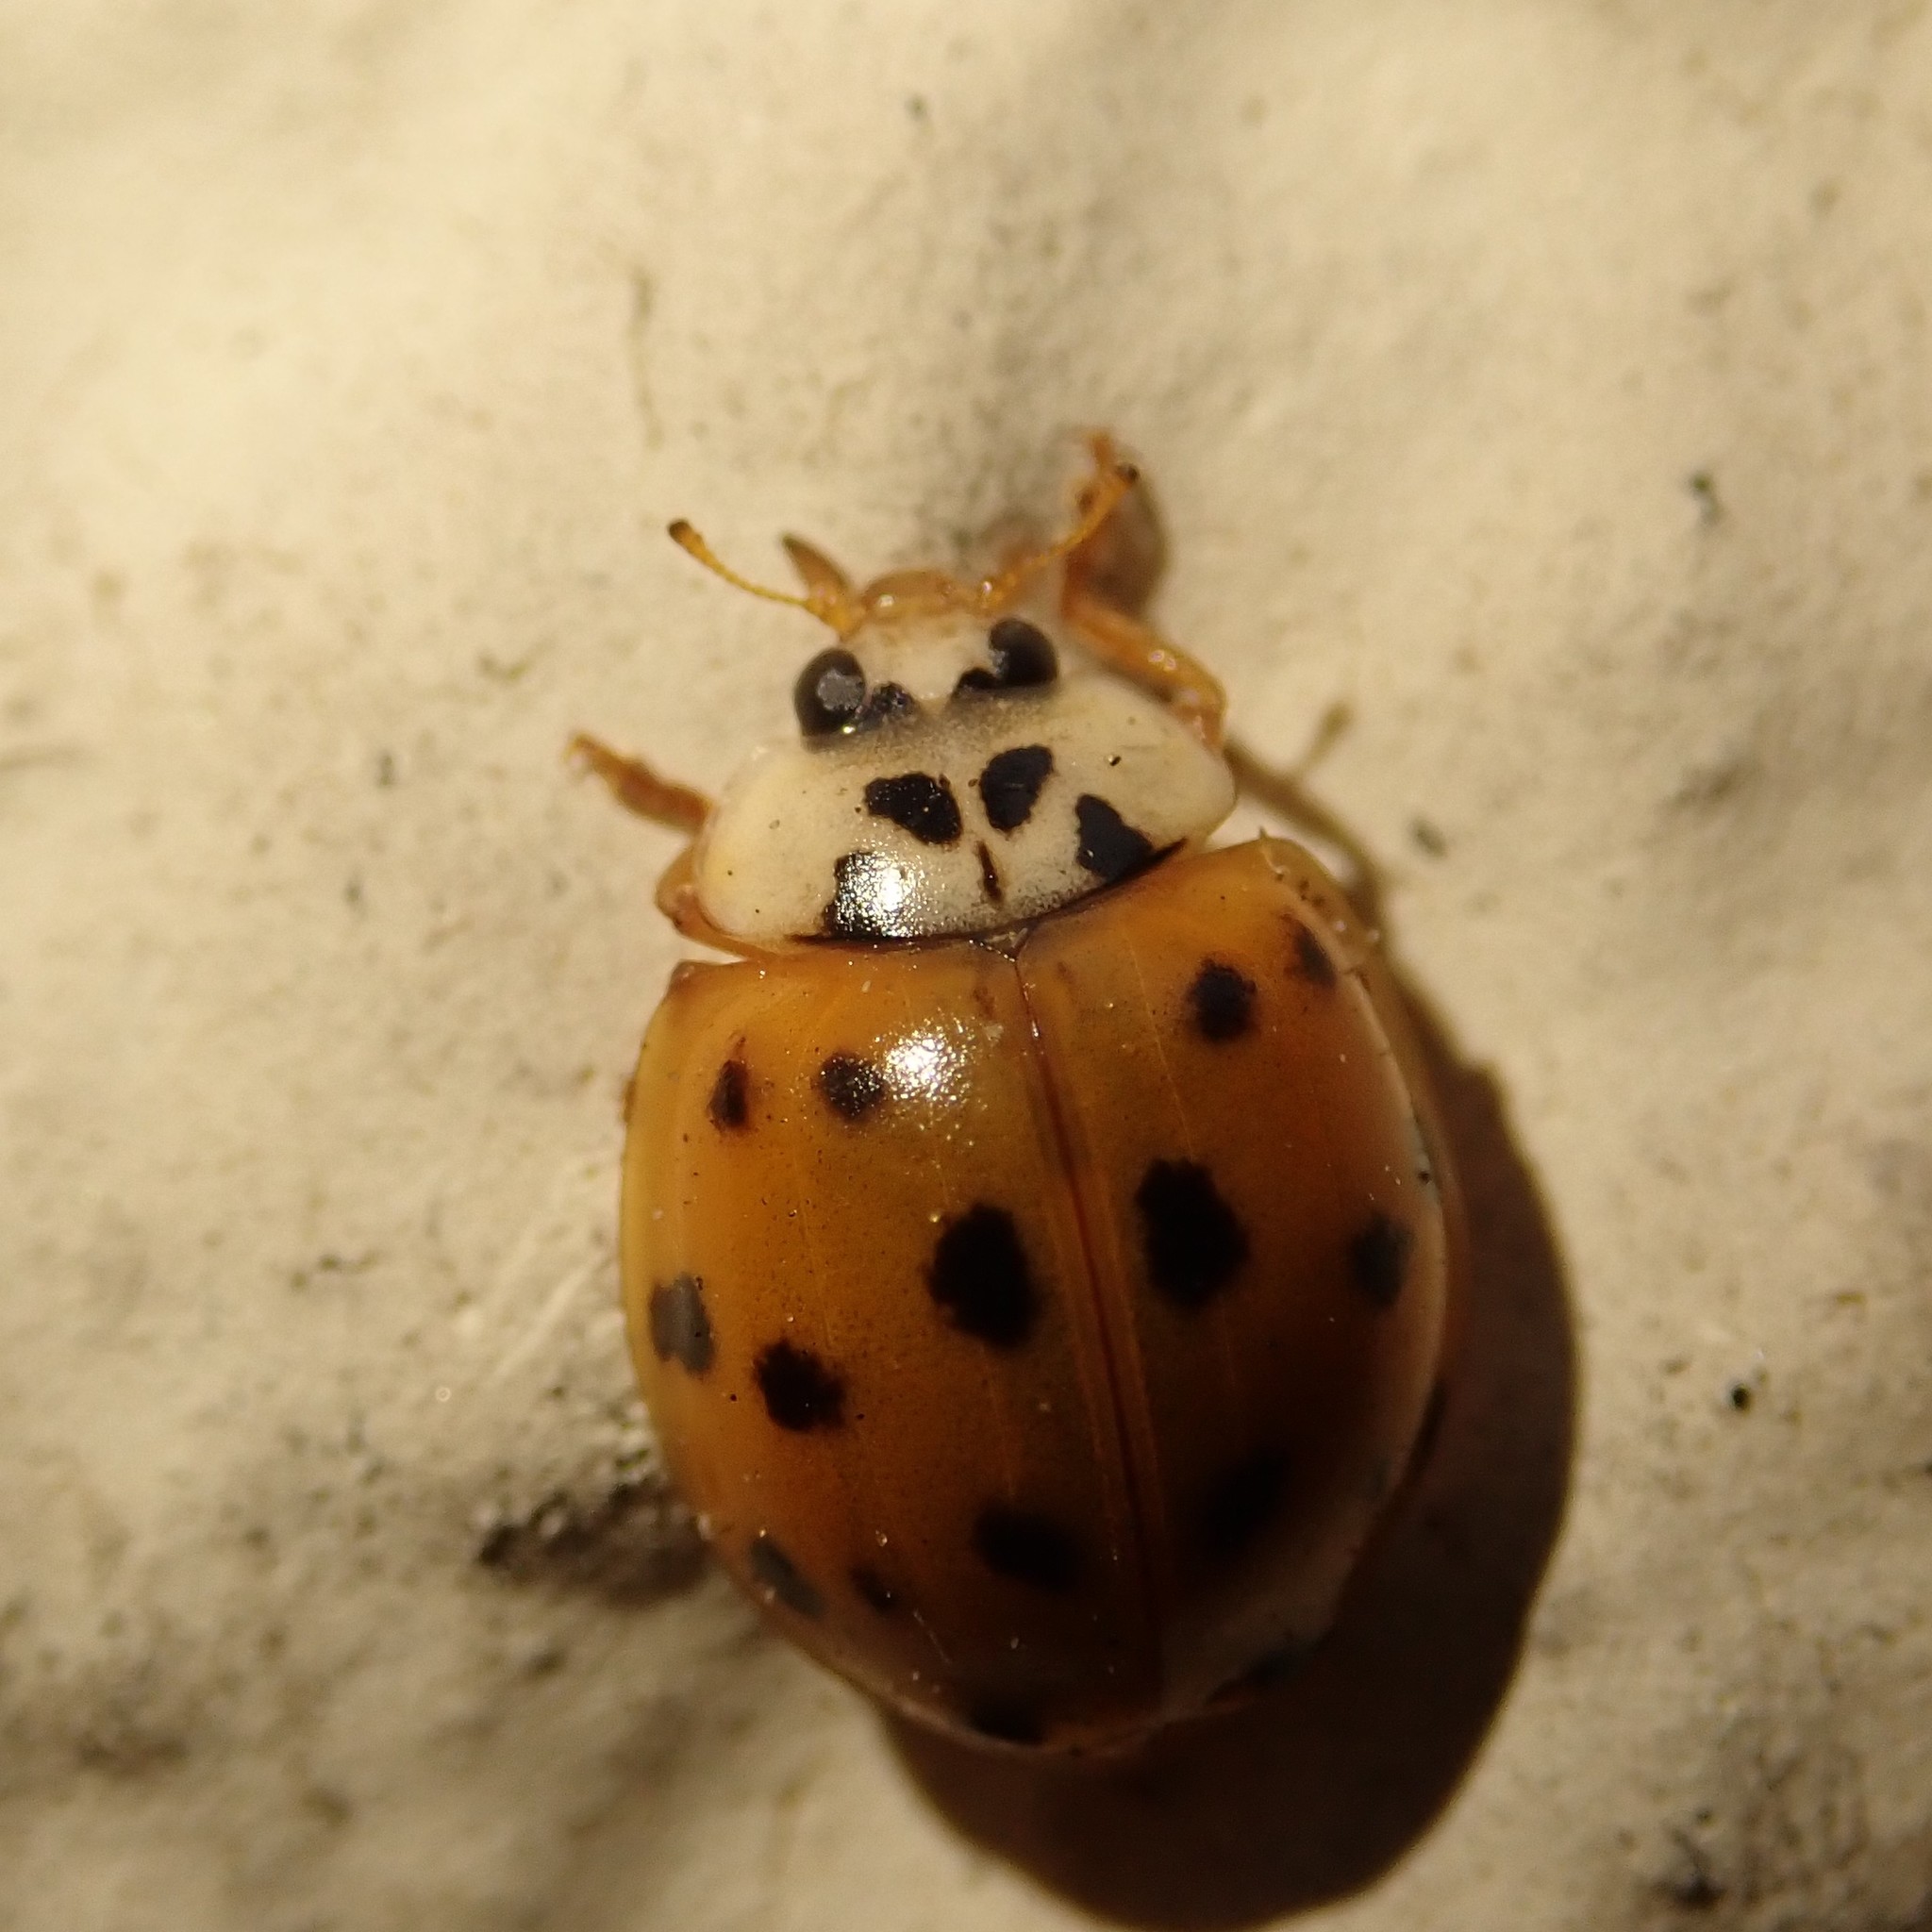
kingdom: Animalia
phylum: Arthropoda
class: Insecta
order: Coleoptera
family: Coccinellidae
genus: Harmonia
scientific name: Harmonia axyridis
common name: Harlequin ladybird
